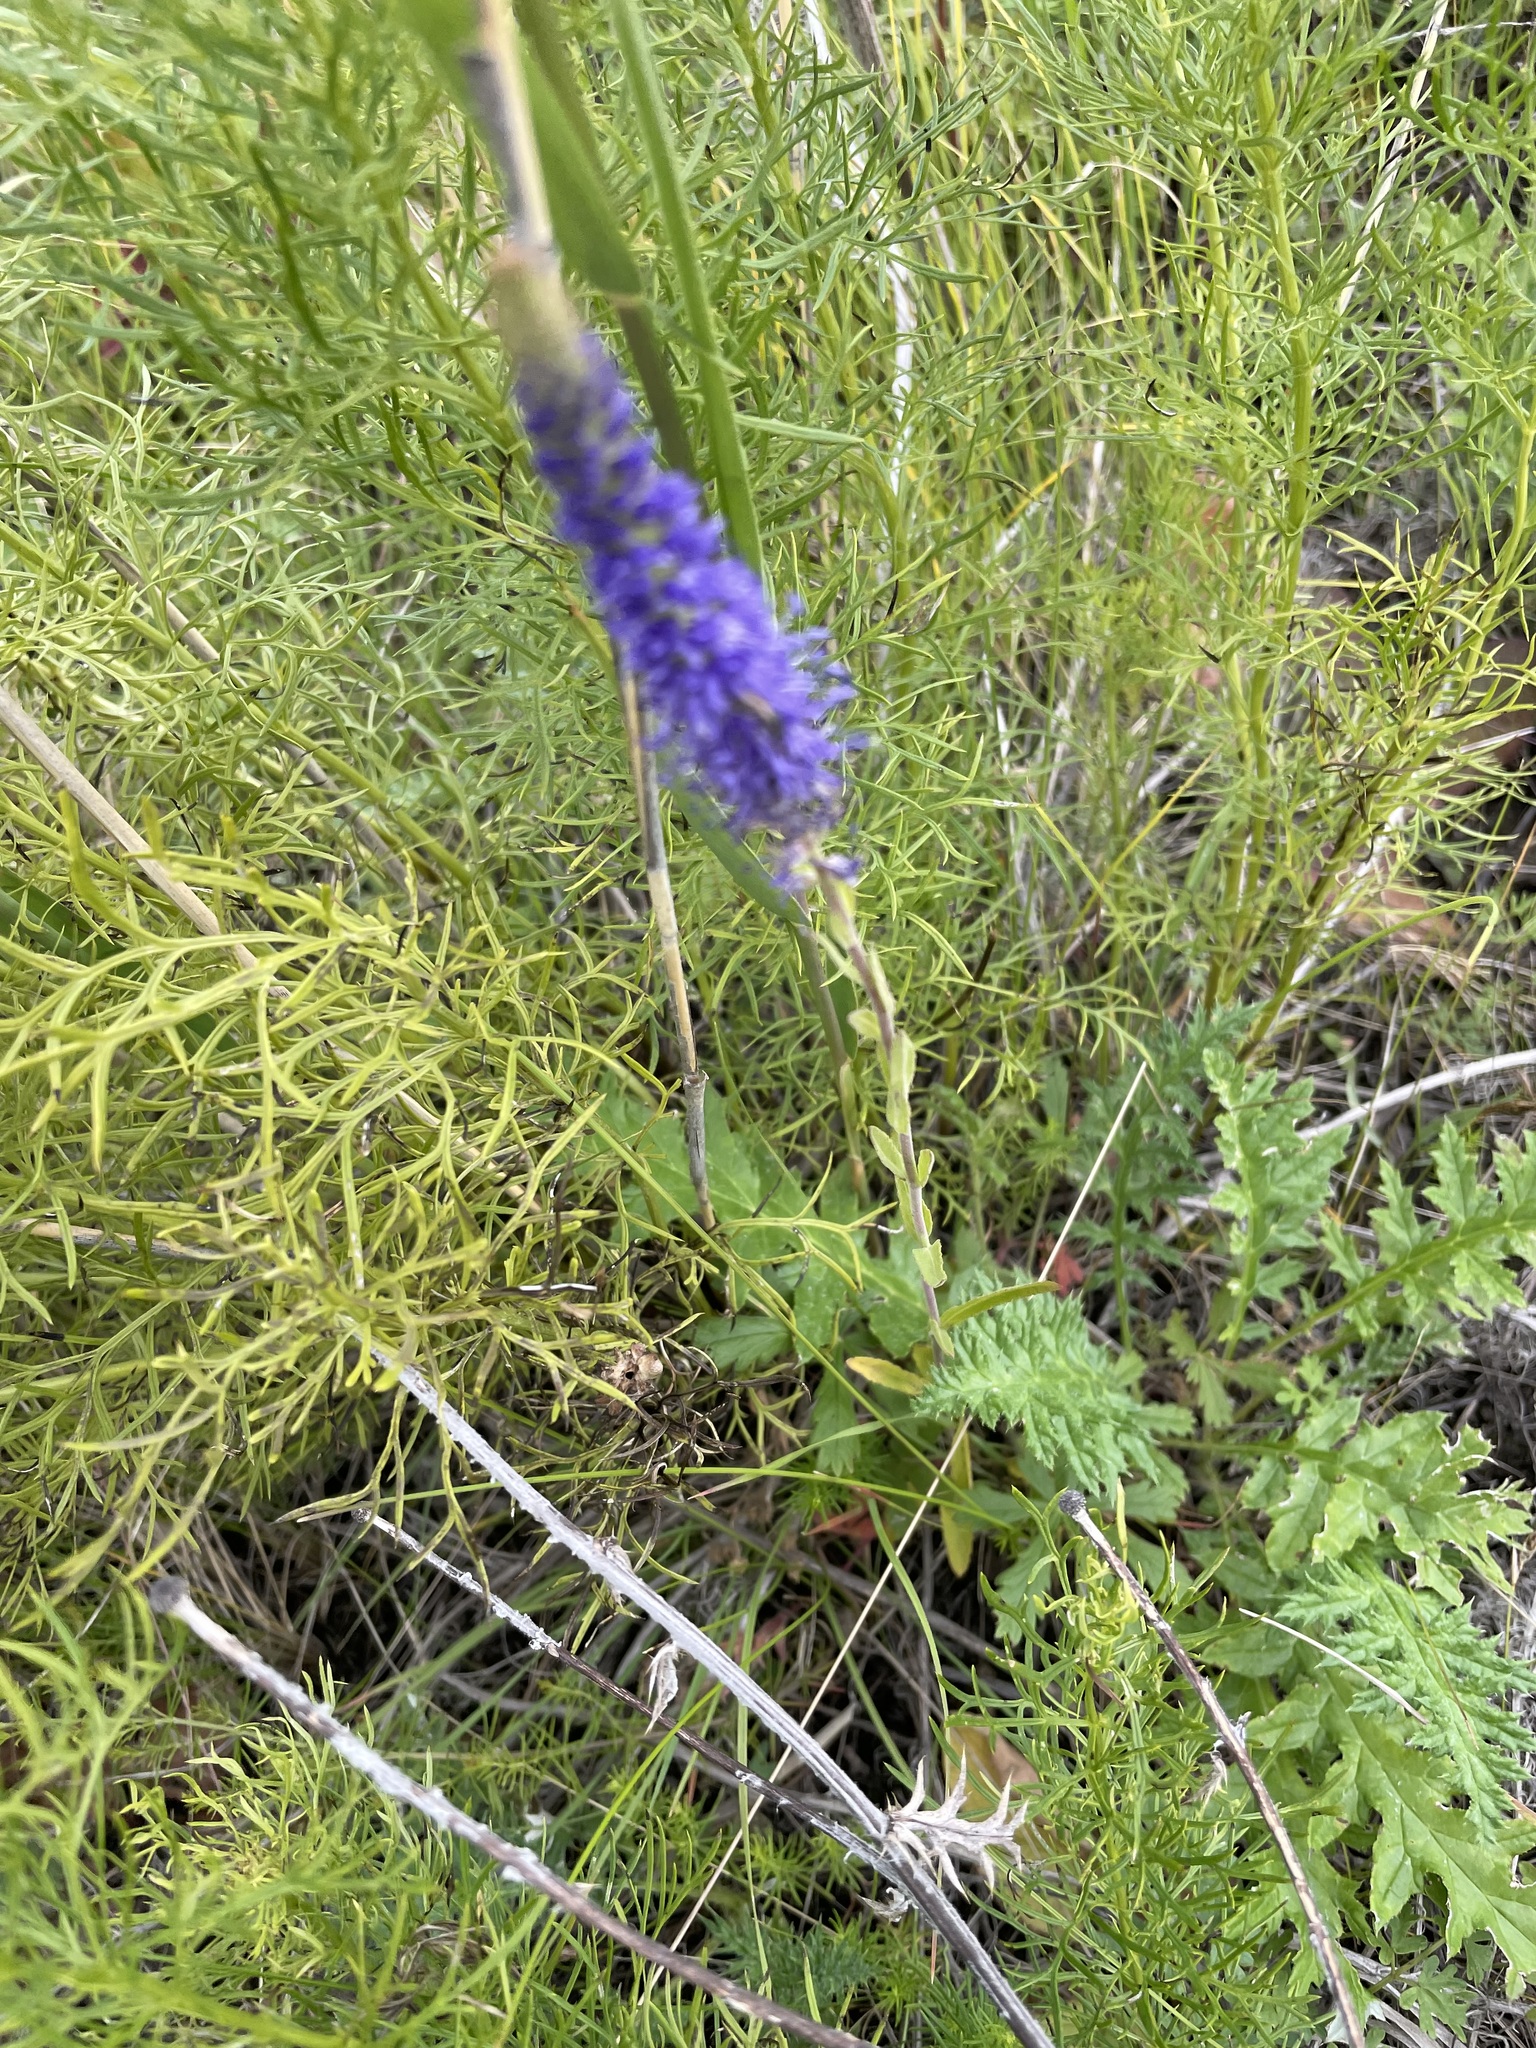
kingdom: Plantae
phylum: Tracheophyta
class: Magnoliopsida
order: Lamiales
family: Plantaginaceae
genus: Veronica
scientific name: Veronica spicata
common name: Spiked speedwell
